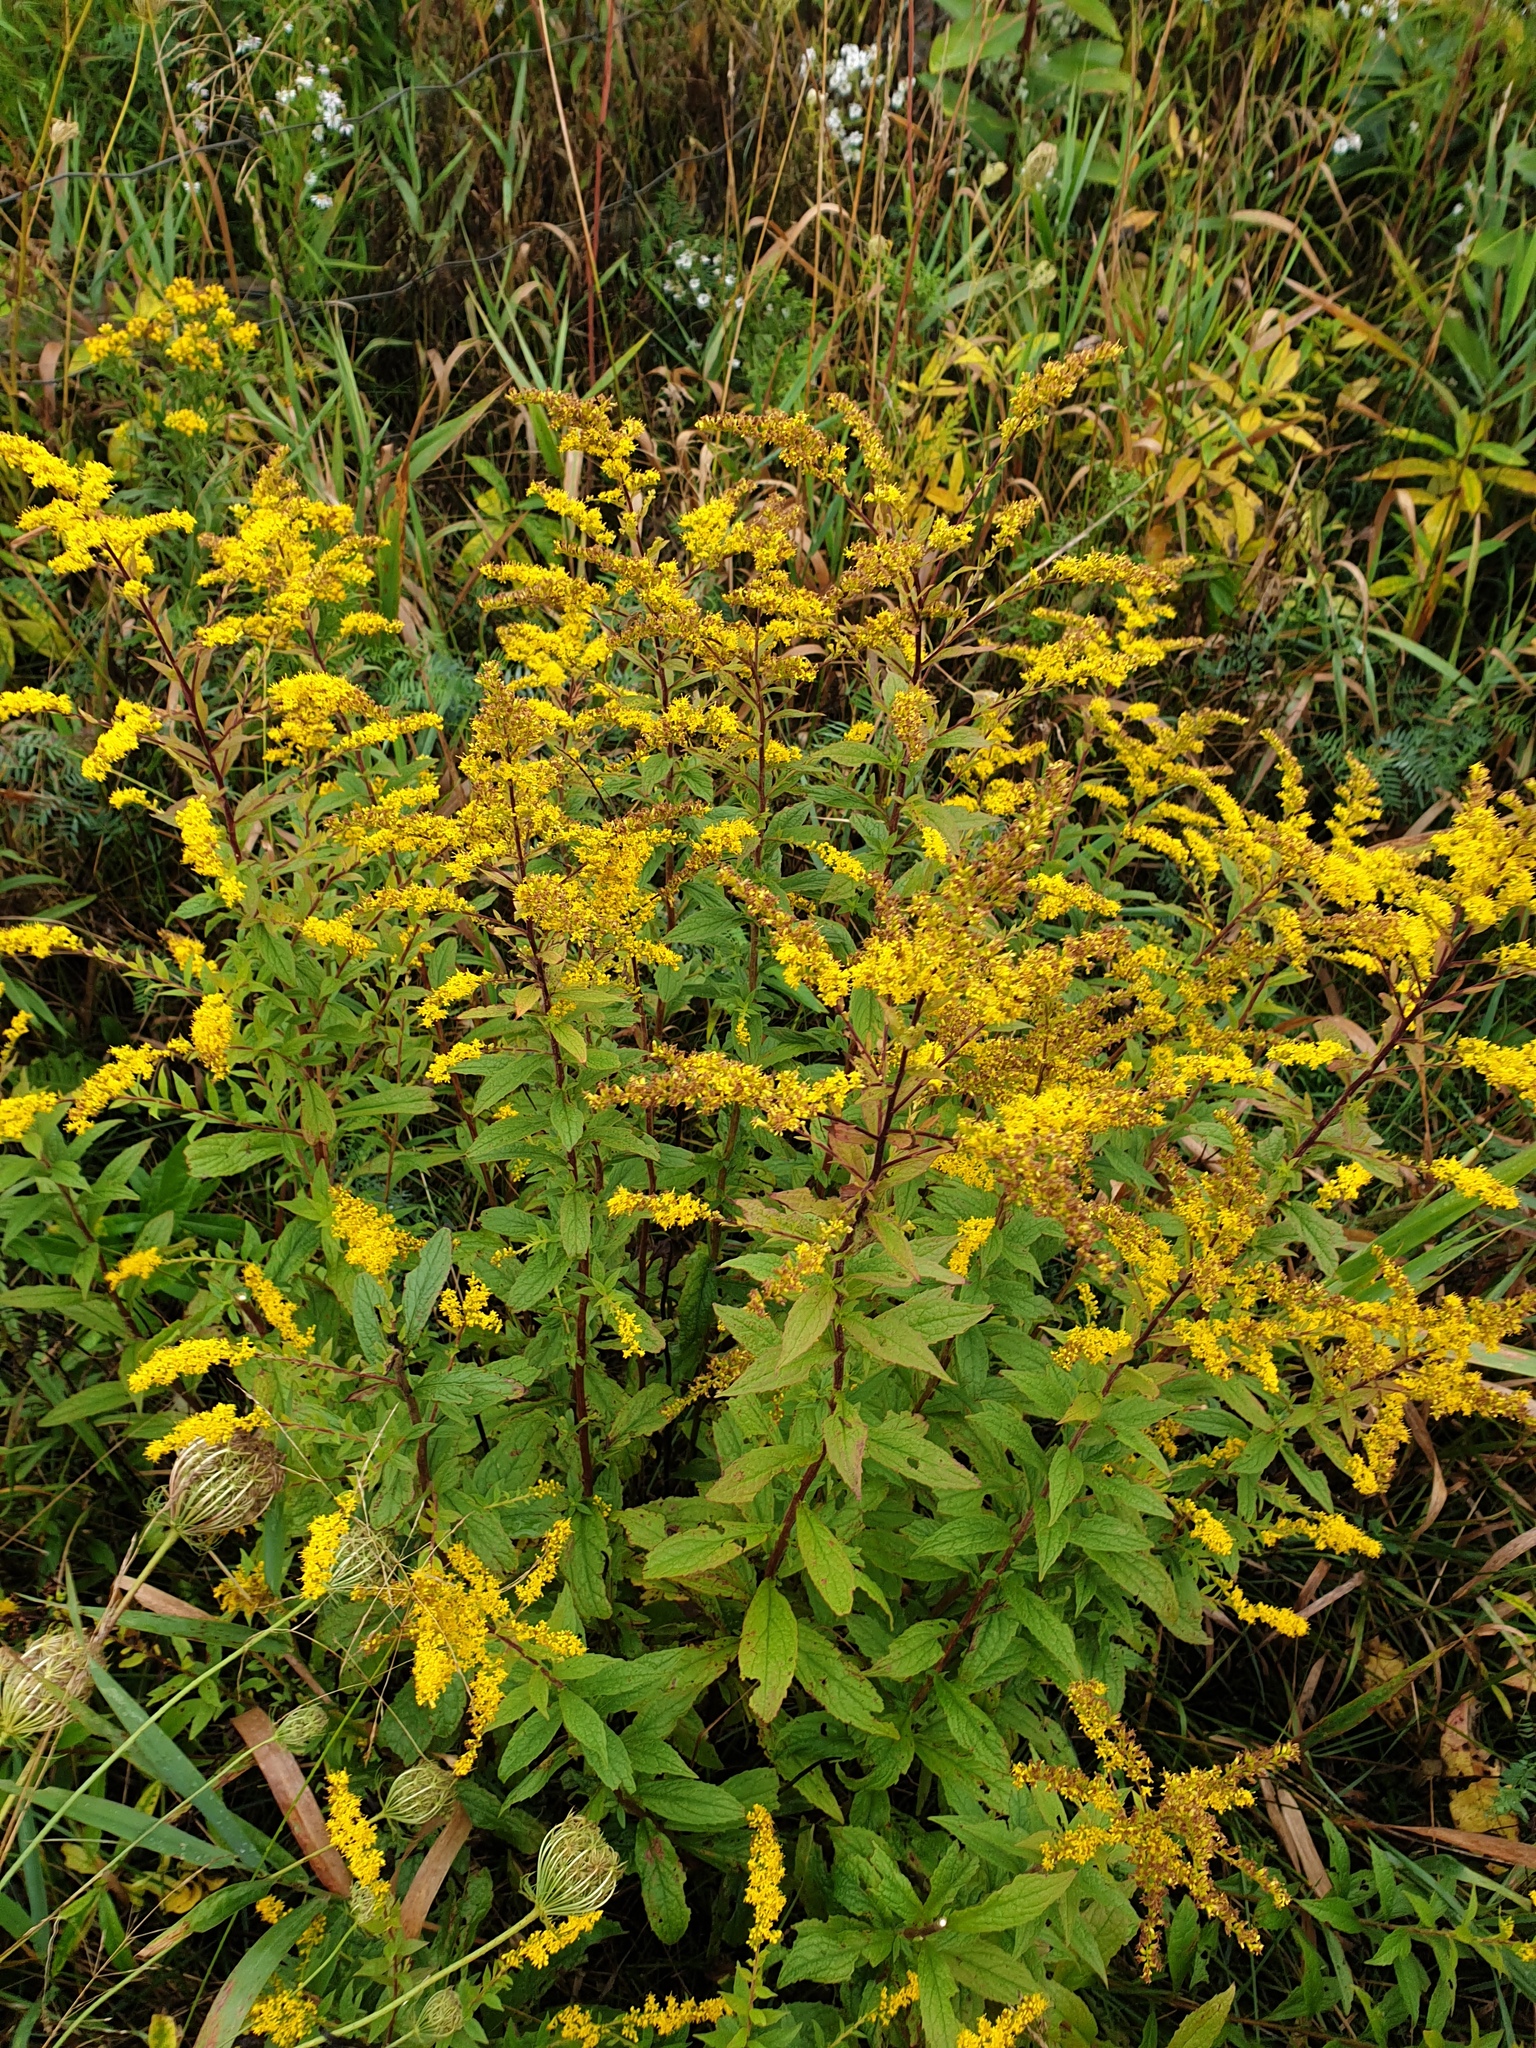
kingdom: Plantae
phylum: Tracheophyta
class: Magnoliopsida
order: Asterales
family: Asteraceae
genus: Solidago
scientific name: Solidago rugosa
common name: Rough-stemmed goldenrod
